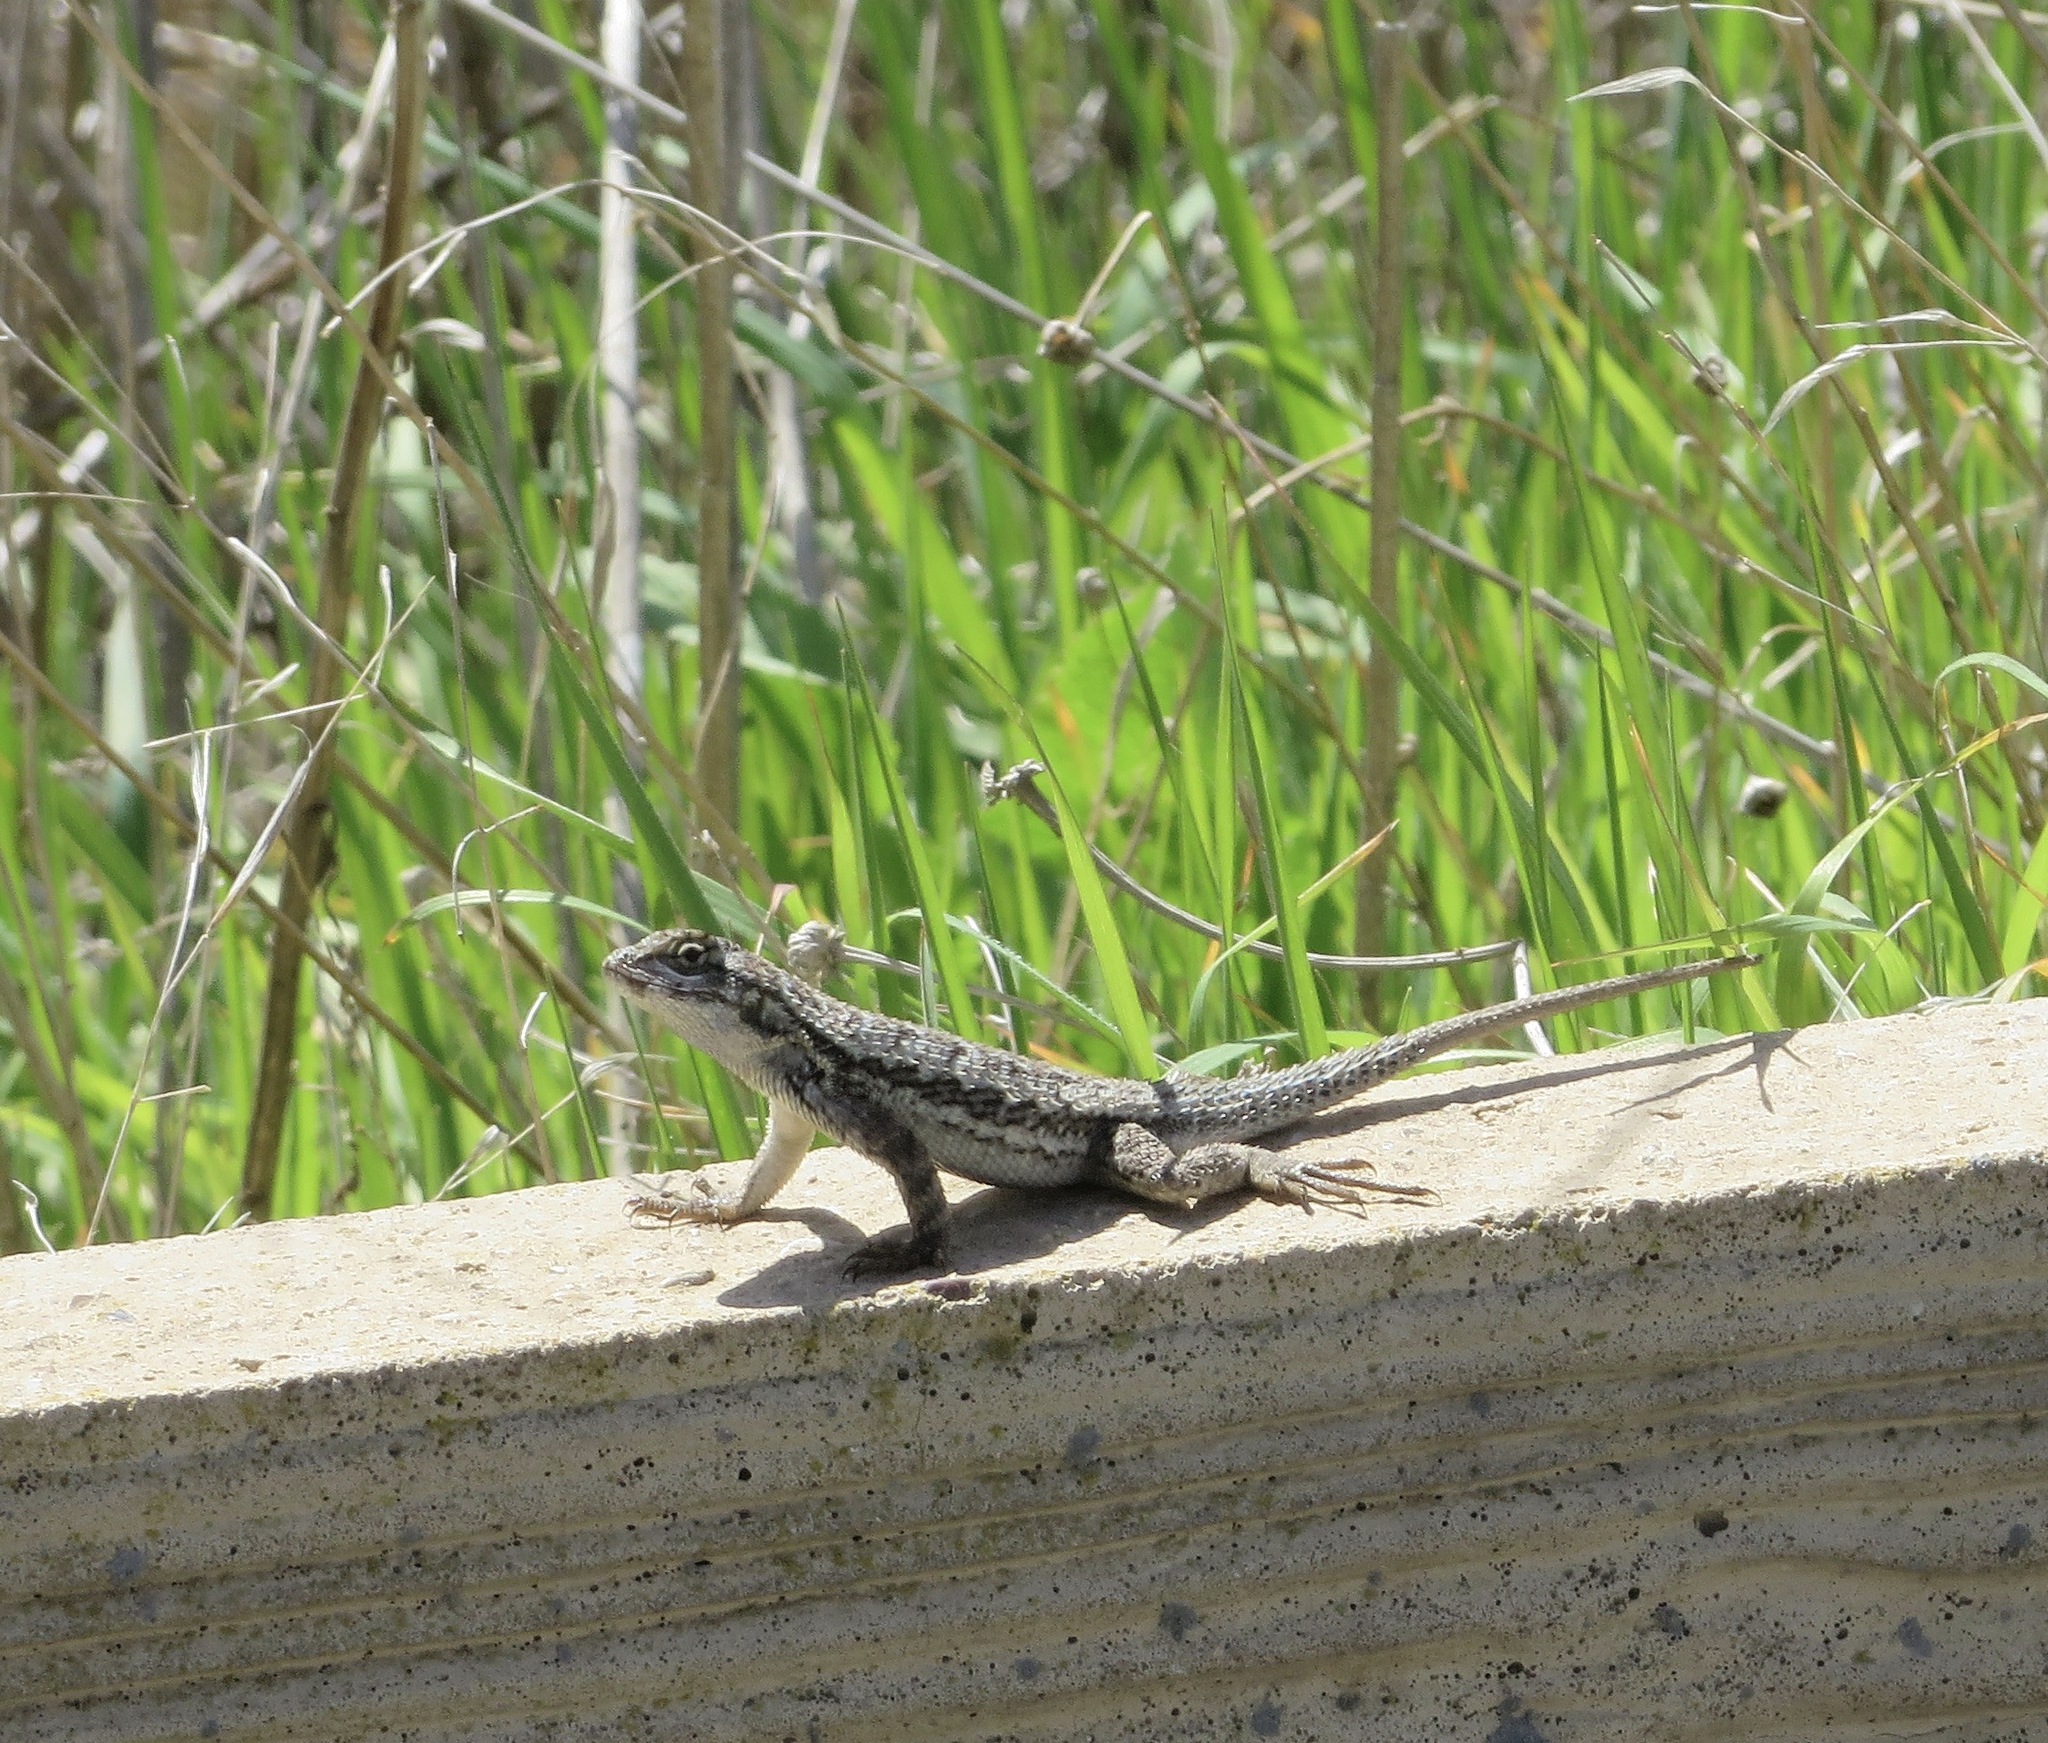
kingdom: Animalia
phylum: Chordata
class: Squamata
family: Phrynosomatidae
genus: Sceloporus
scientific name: Sceloporus occidentalis
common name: Western fence lizard
